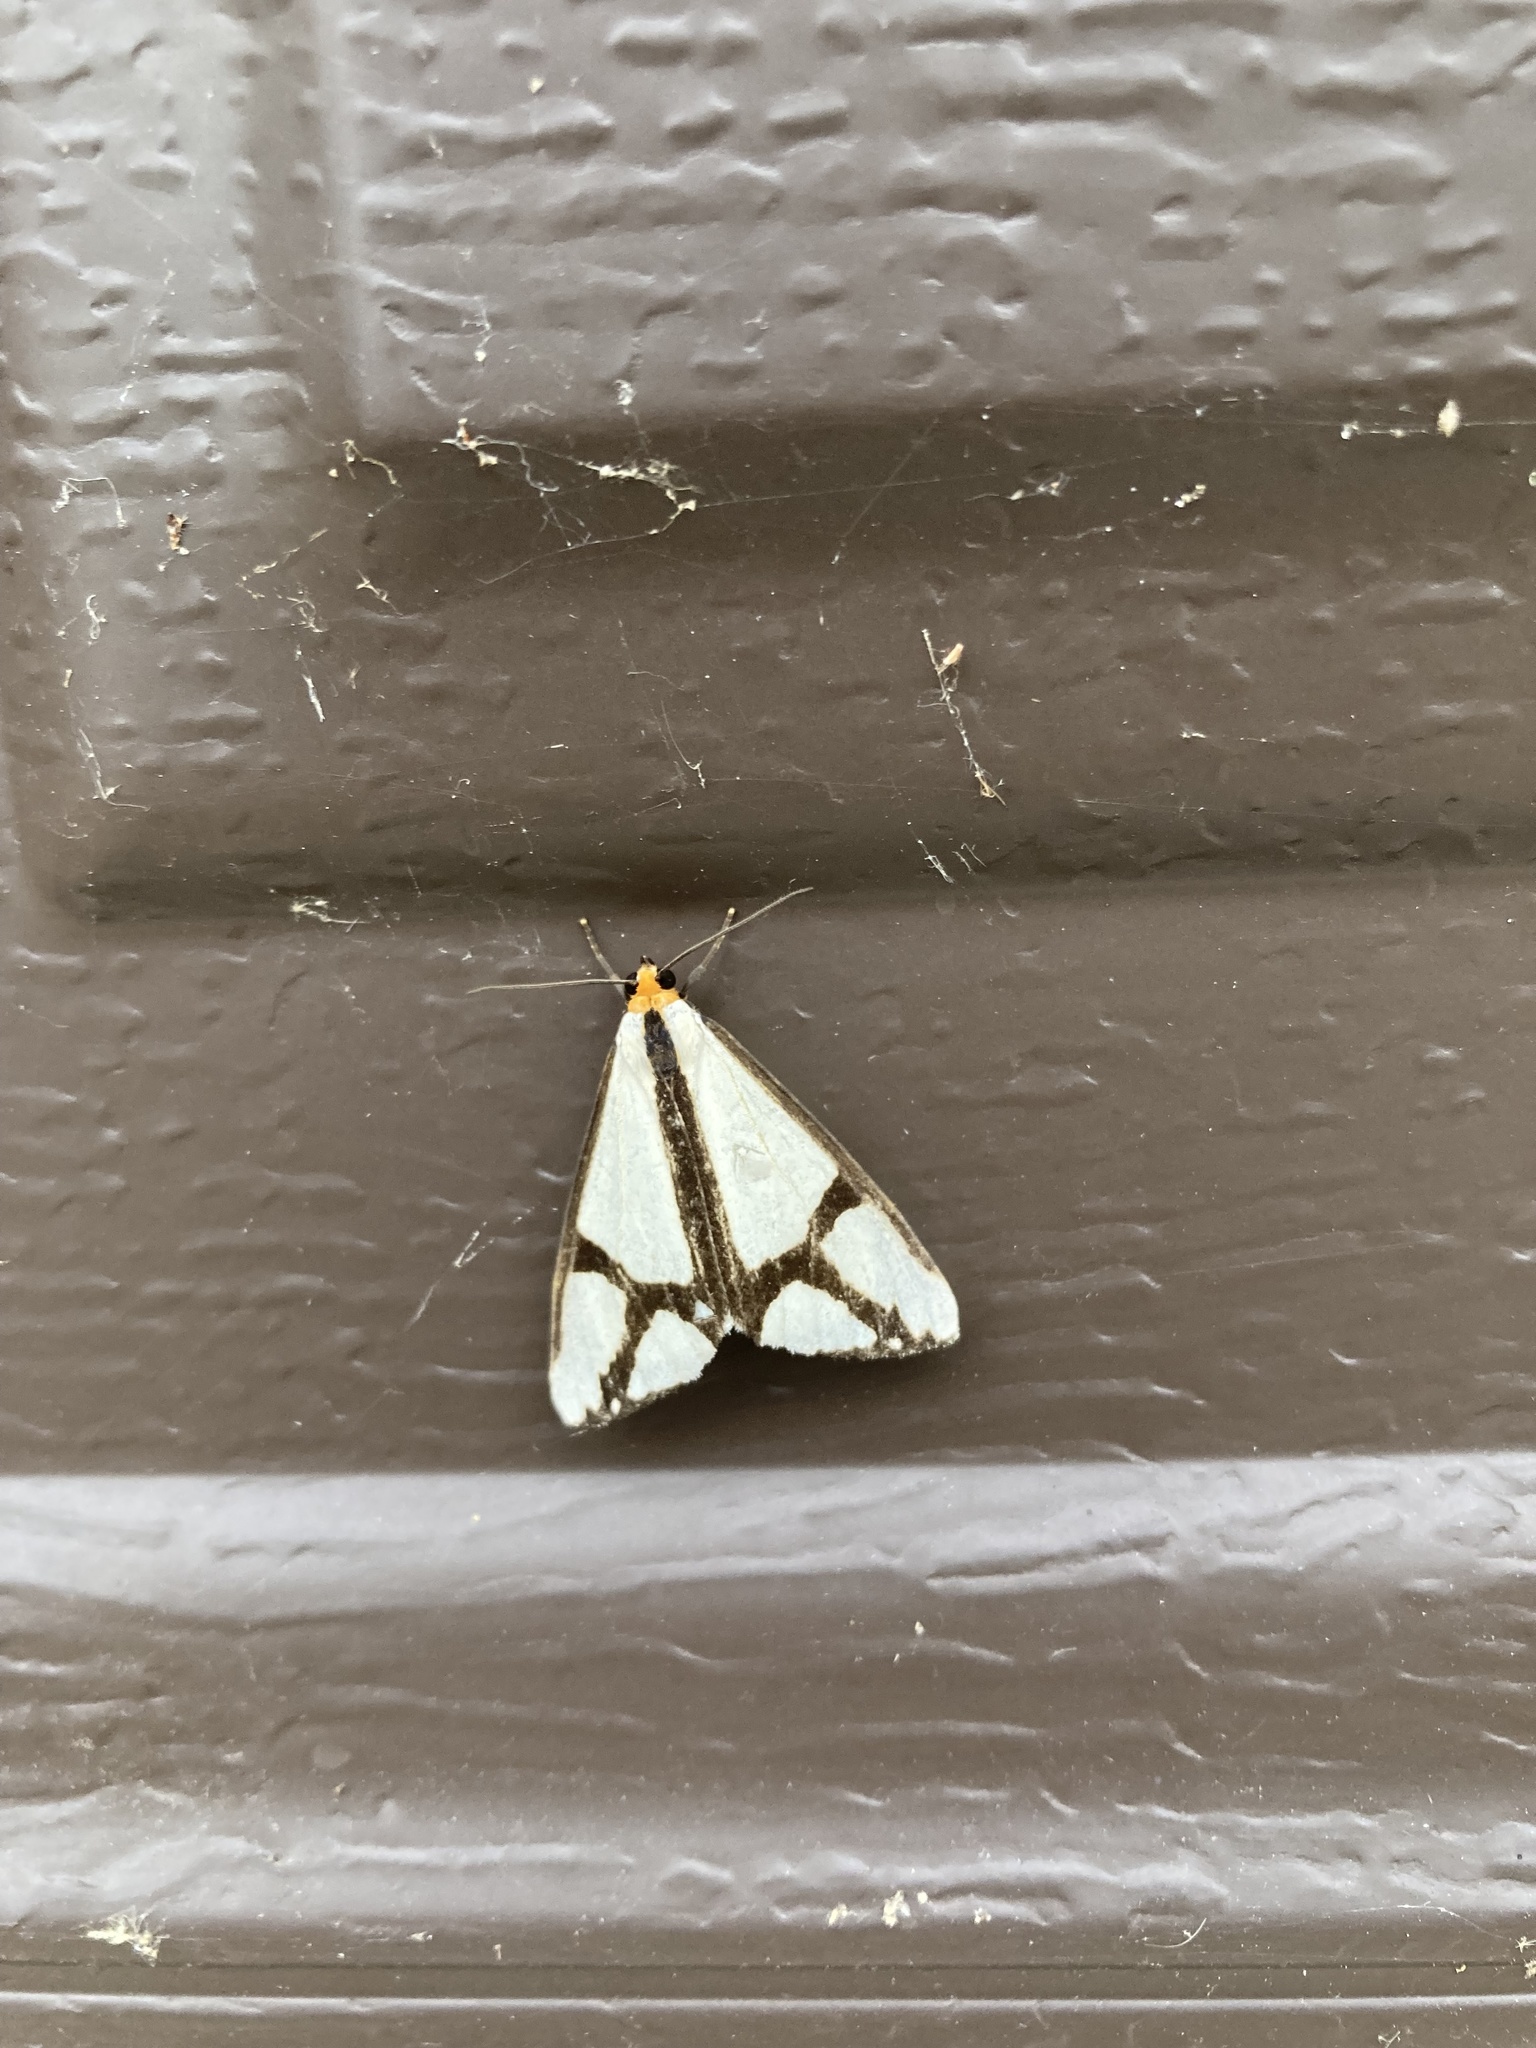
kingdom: Animalia
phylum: Arthropoda
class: Insecta
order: Lepidoptera
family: Erebidae
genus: Haploa
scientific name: Haploa contigua
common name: Neighbor moth
